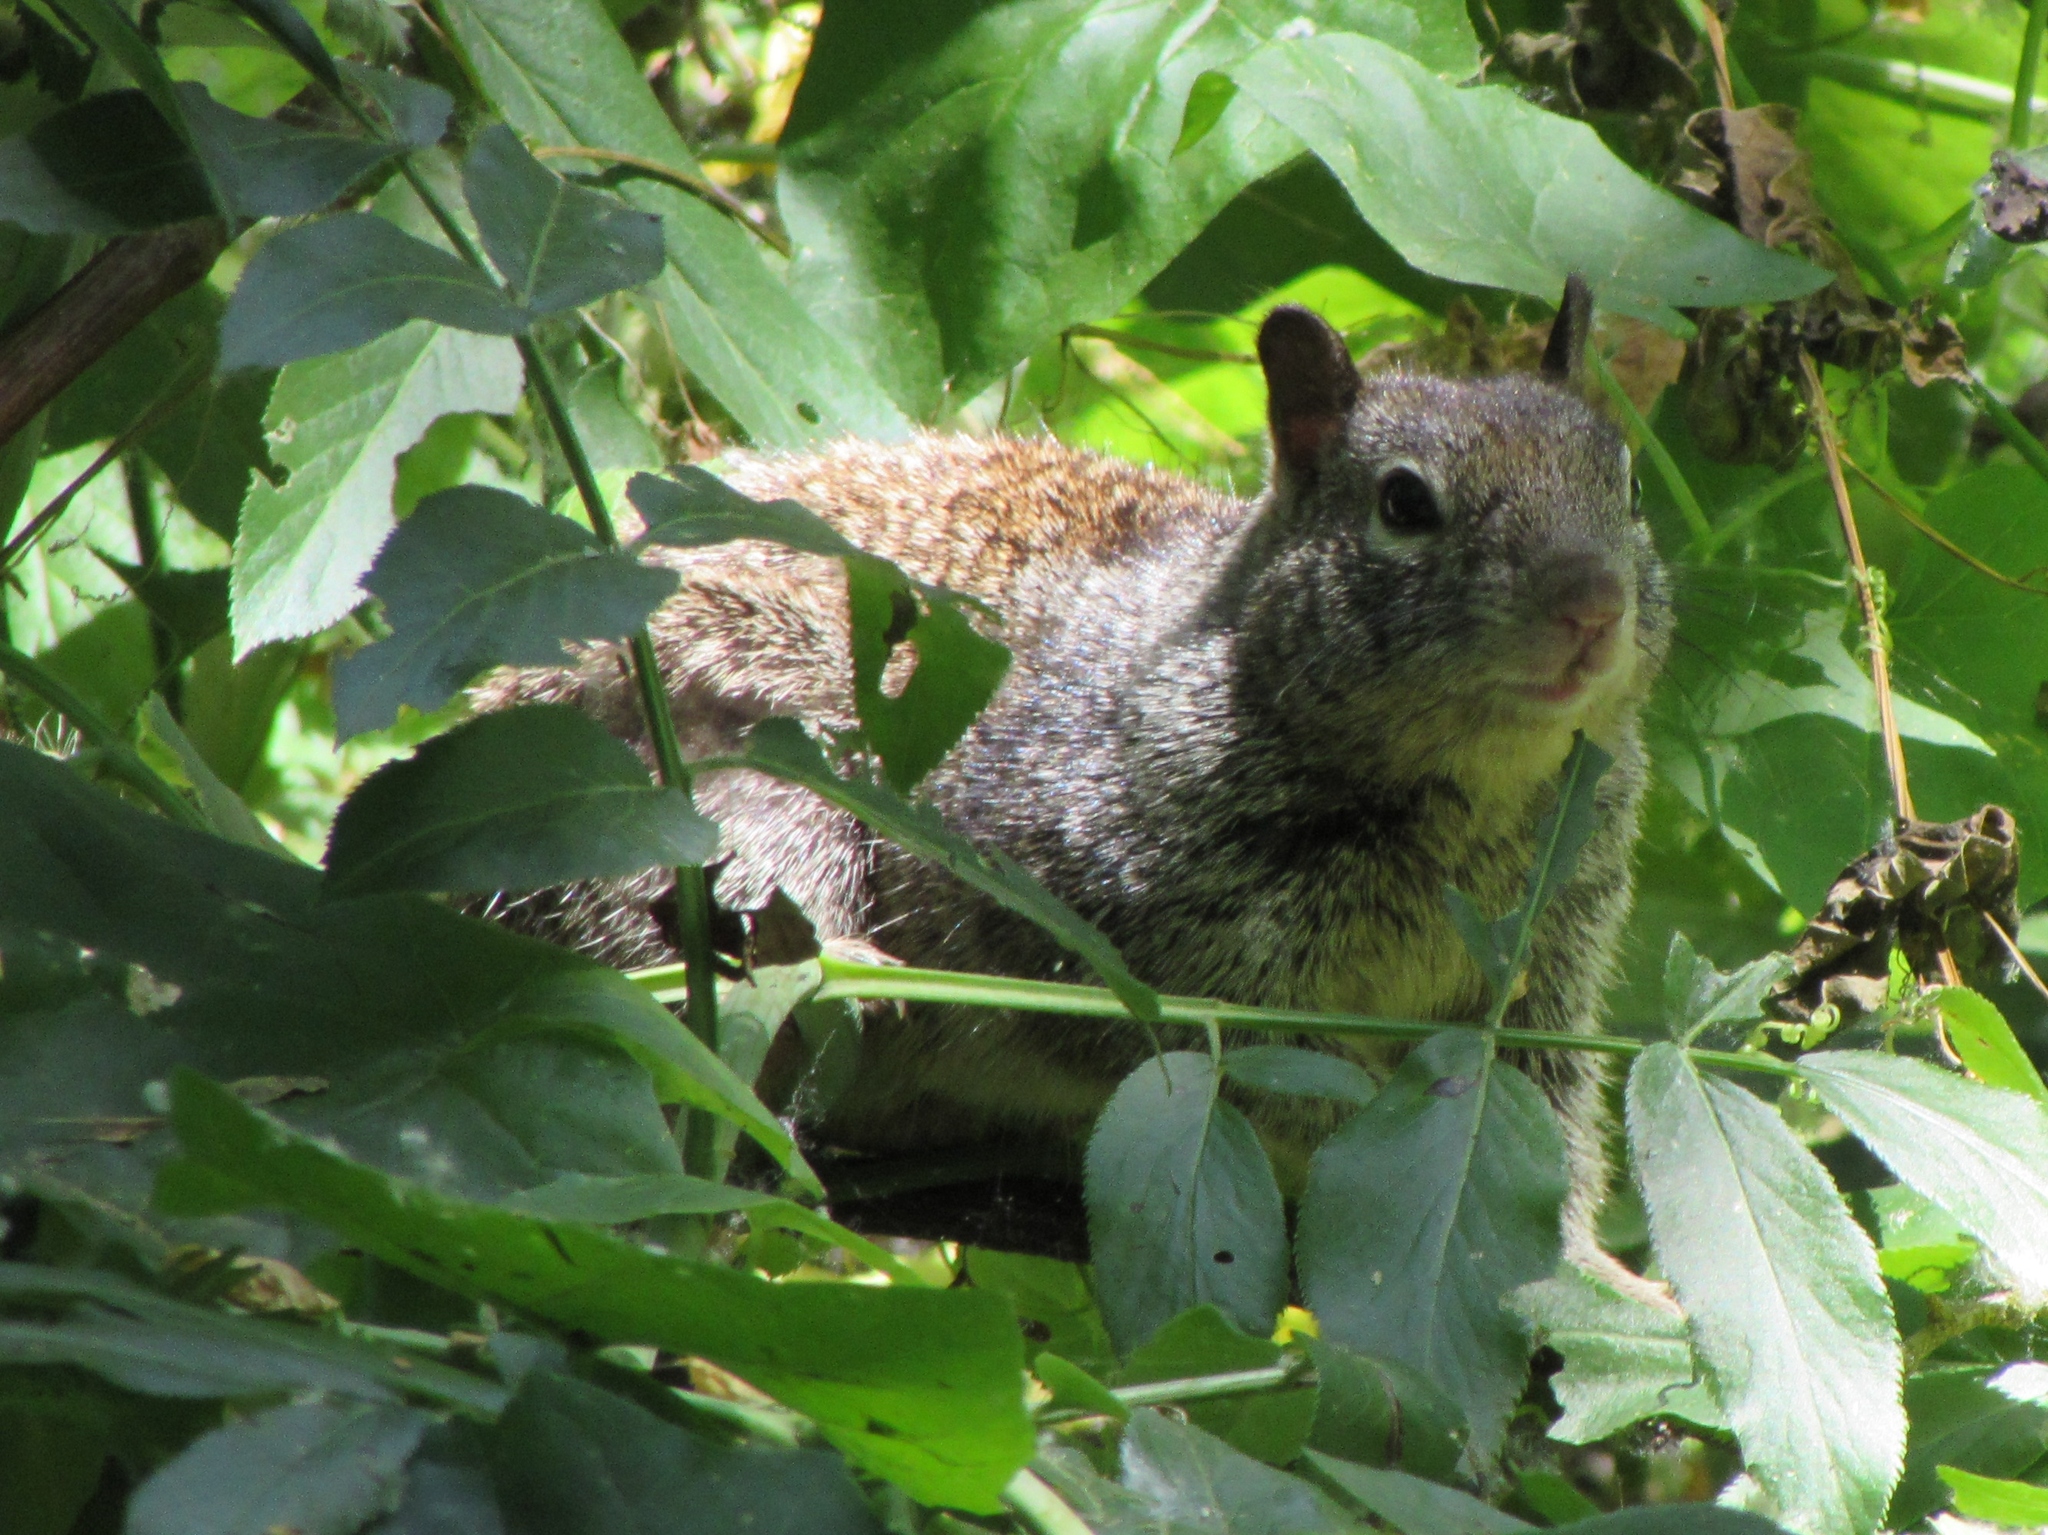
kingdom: Animalia
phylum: Chordata
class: Mammalia
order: Rodentia
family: Sciuridae
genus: Otospermophilus
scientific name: Otospermophilus beecheyi
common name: California ground squirrel
